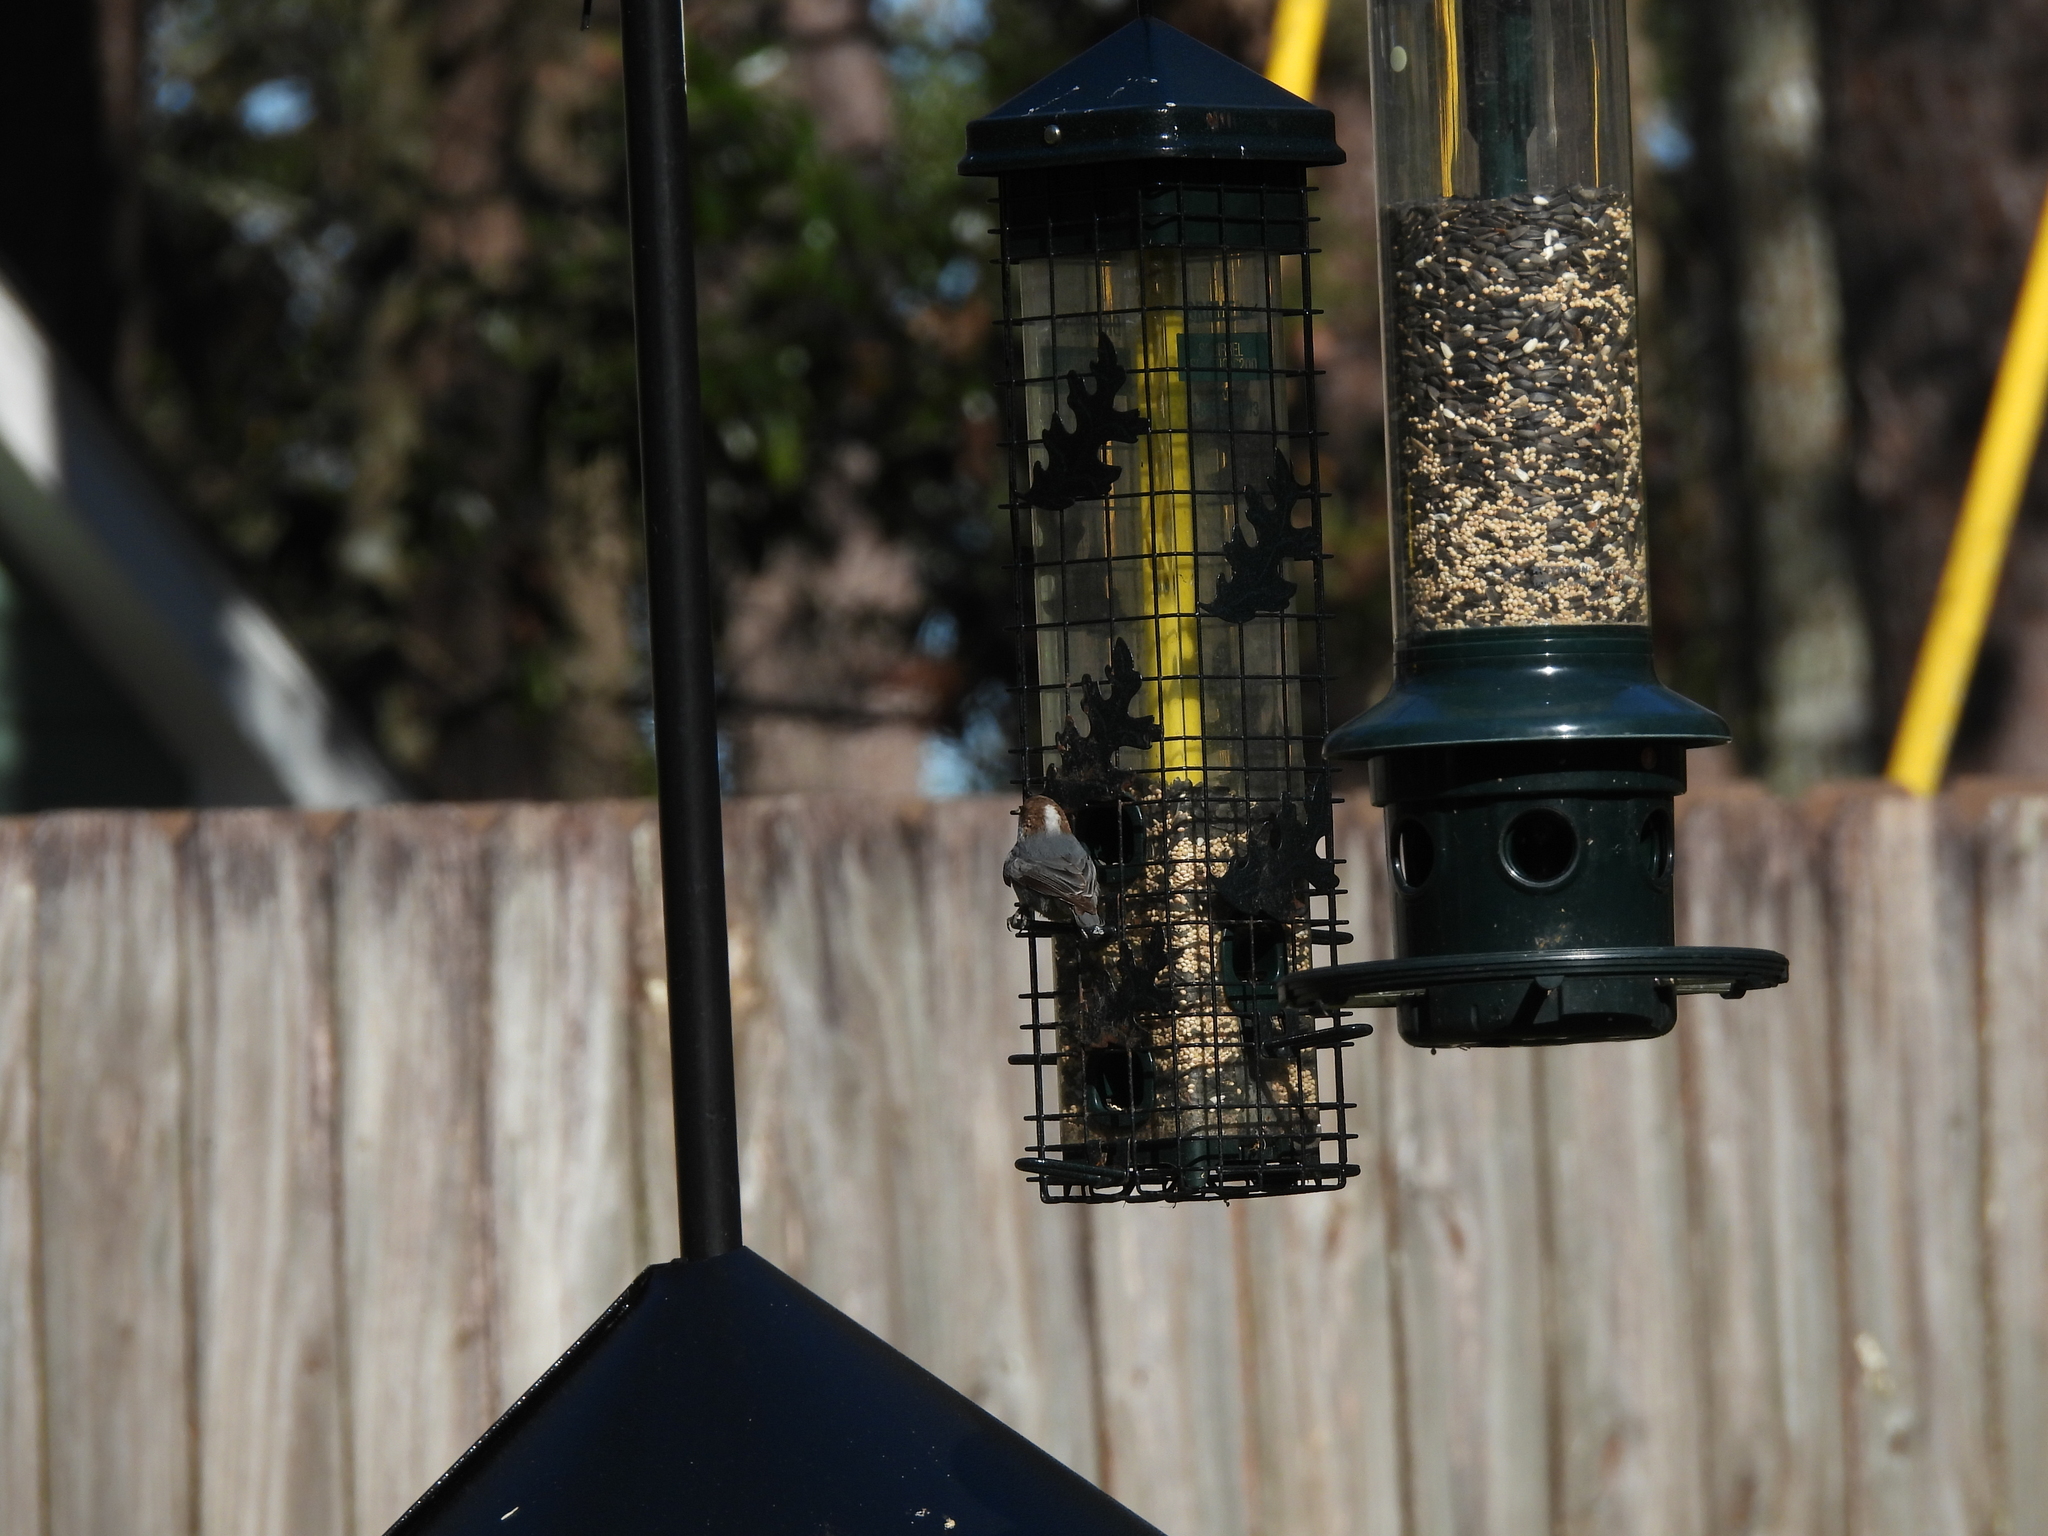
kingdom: Animalia
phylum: Chordata
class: Aves
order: Passeriformes
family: Sittidae
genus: Sitta
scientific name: Sitta pusilla
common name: Brown-headed nuthatch
